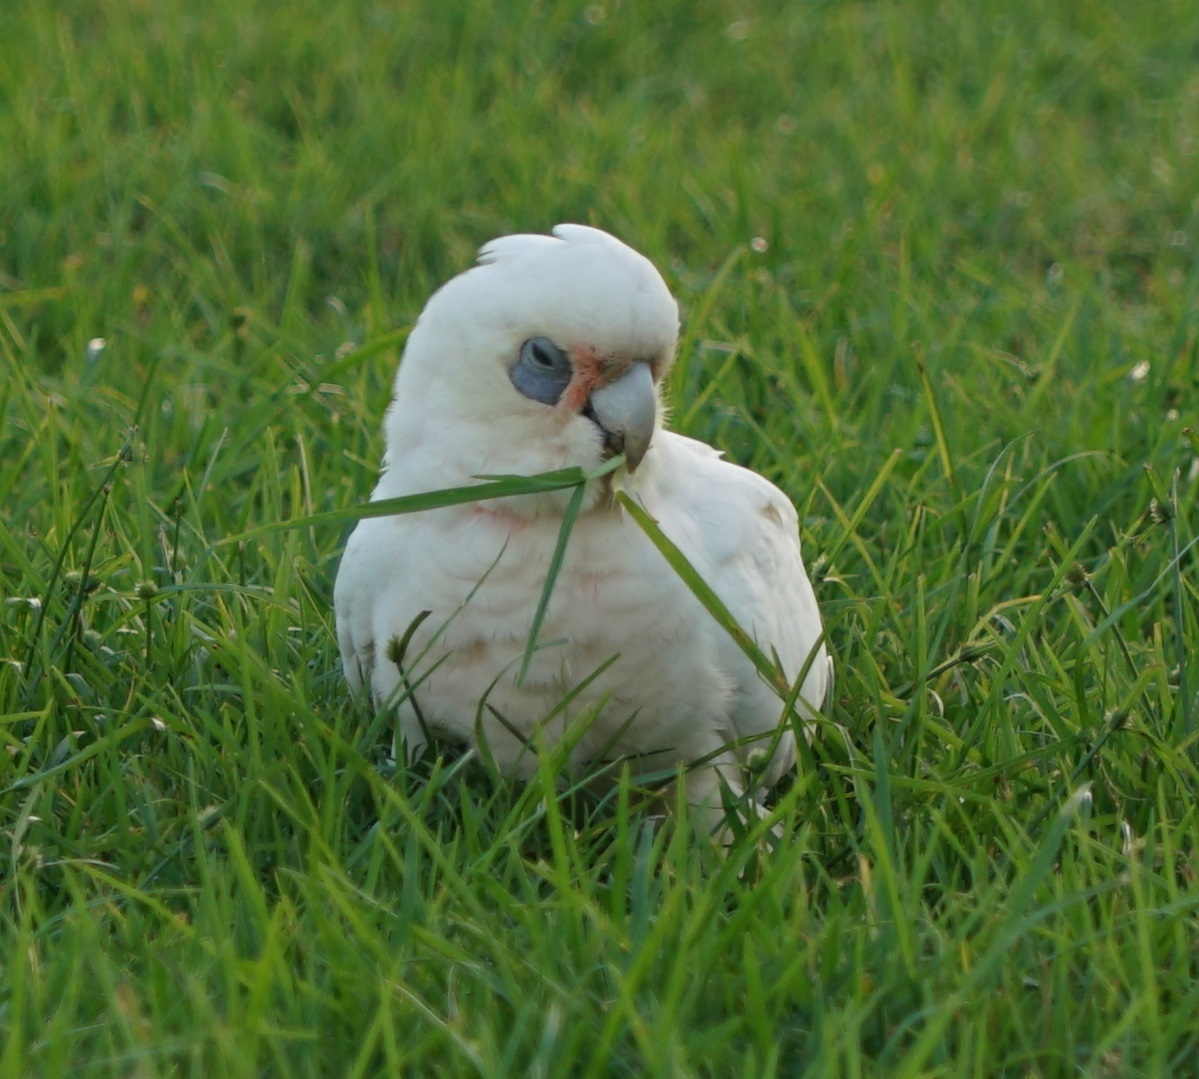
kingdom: Animalia
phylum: Chordata
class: Aves
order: Psittaciformes
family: Psittacidae
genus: Cacatua
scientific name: Cacatua sanguinea
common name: Little corella
